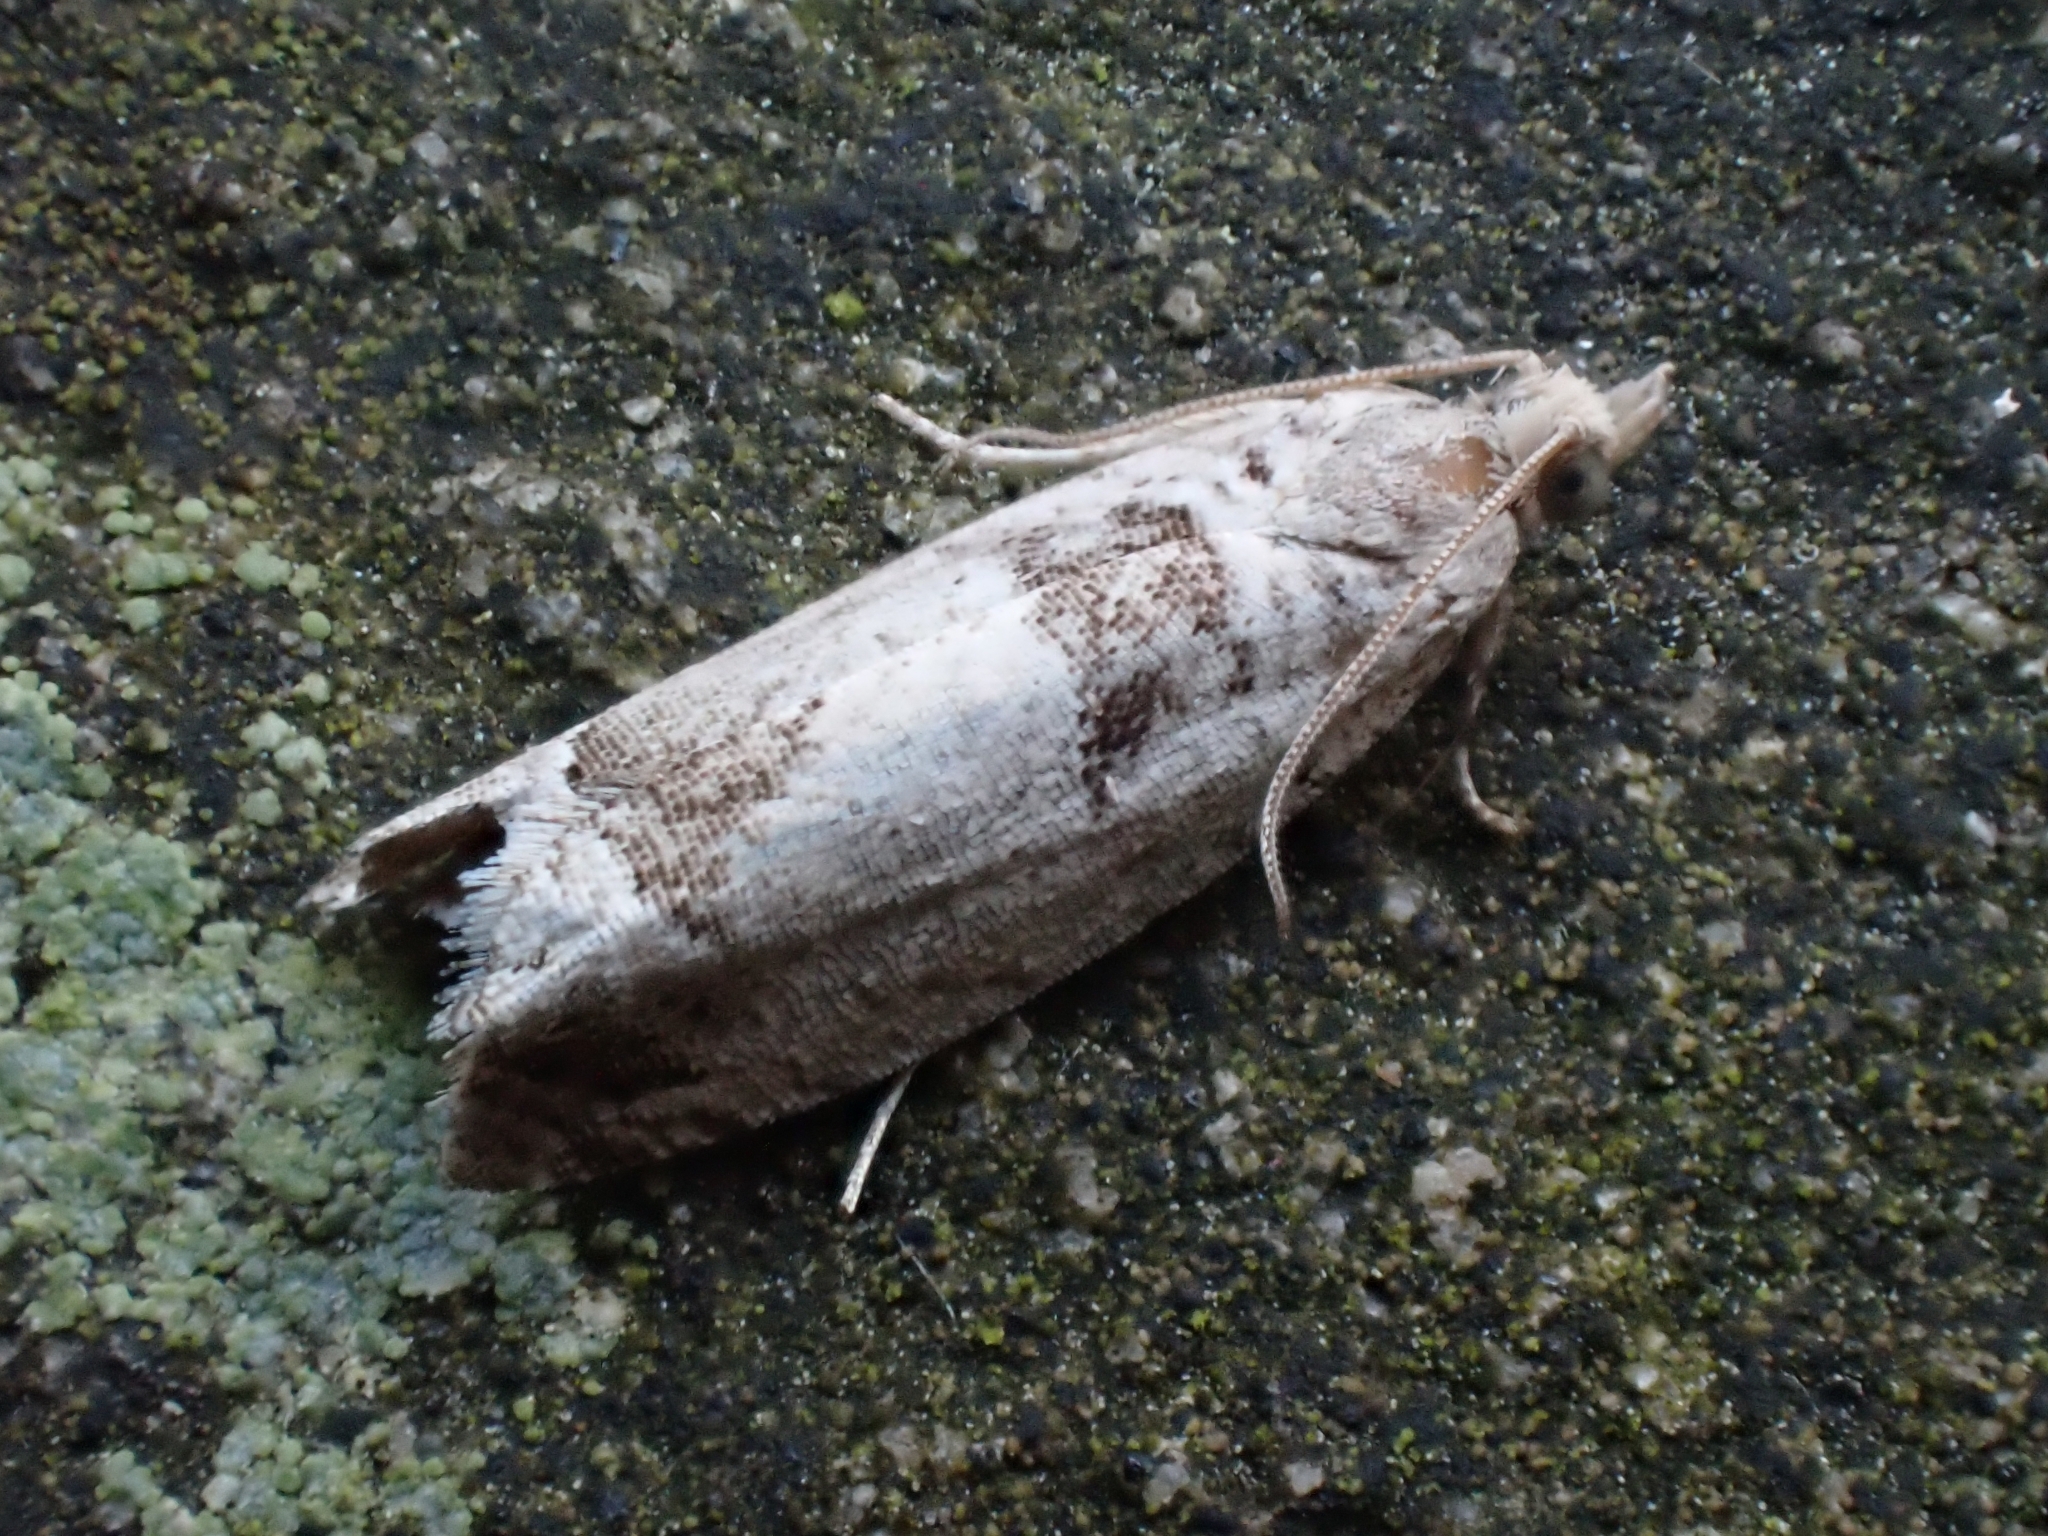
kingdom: Animalia
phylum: Arthropoda
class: Insecta
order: Lepidoptera
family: Tortricidae
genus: Epinotia
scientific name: Epinotia ramella
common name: Small birch bell
